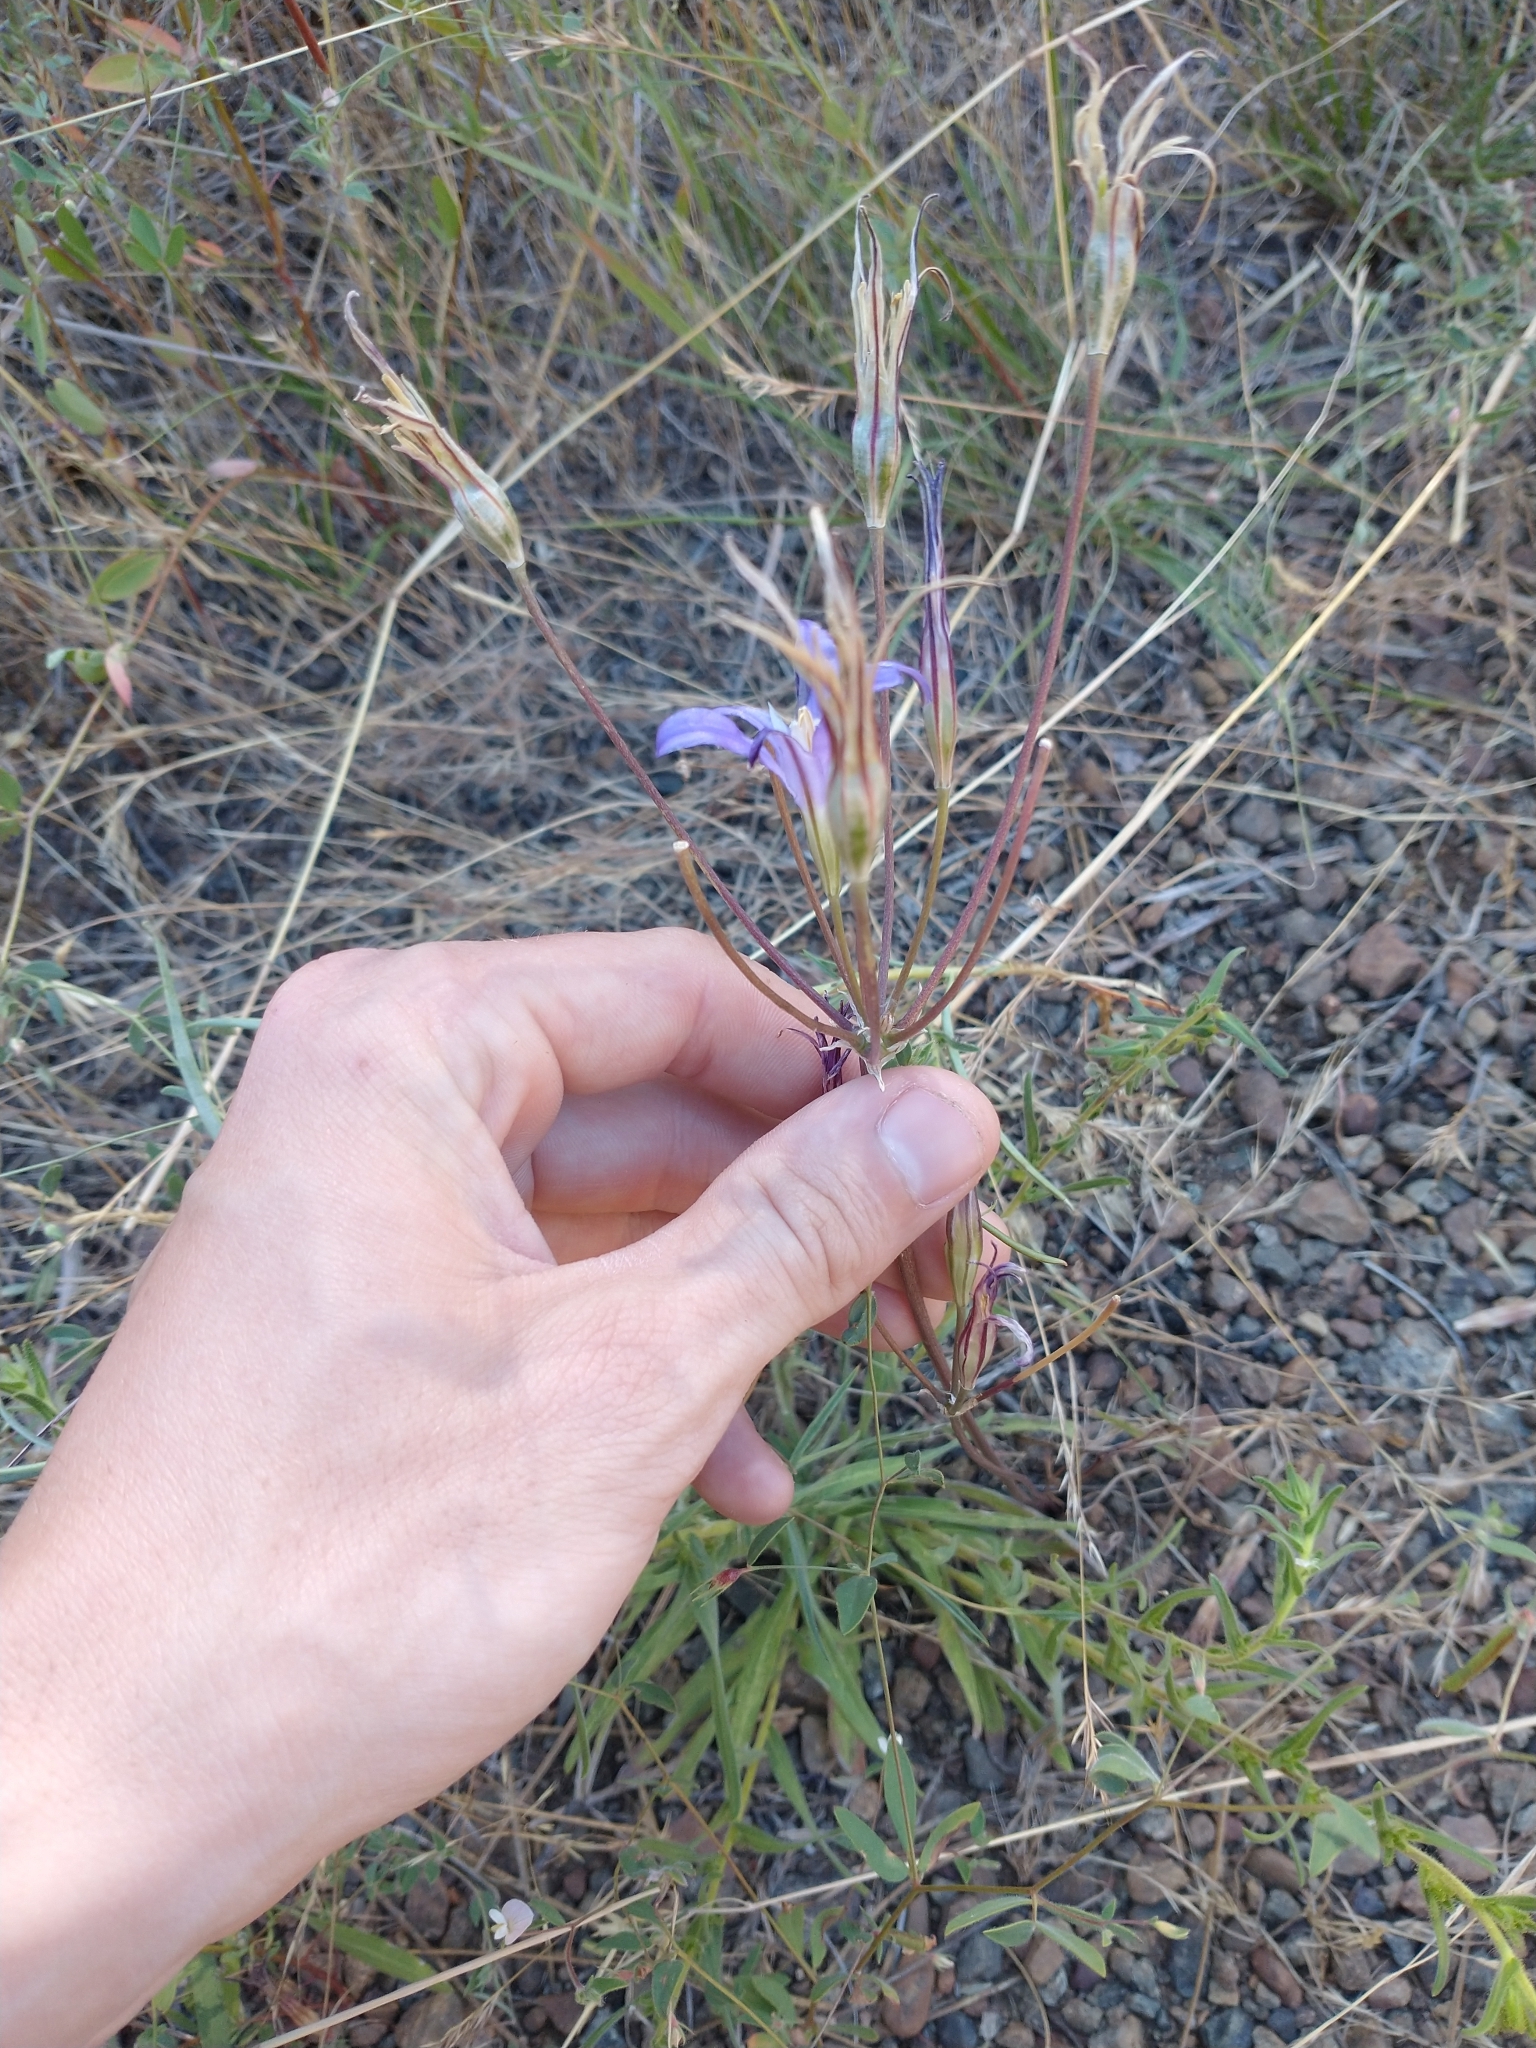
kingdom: Plantae
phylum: Tracheophyta
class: Liliopsida
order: Asparagales
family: Asparagaceae
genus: Brodiaea
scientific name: Brodiaea elegans
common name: Elegant cluster-lily
